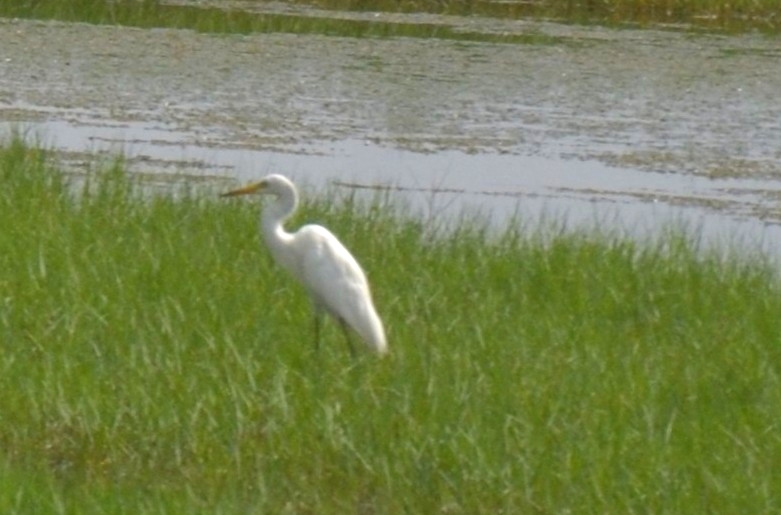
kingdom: Animalia
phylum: Chordata
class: Aves
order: Pelecaniformes
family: Ardeidae
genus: Egretta
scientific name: Egretta intermedia
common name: Intermediate egret
